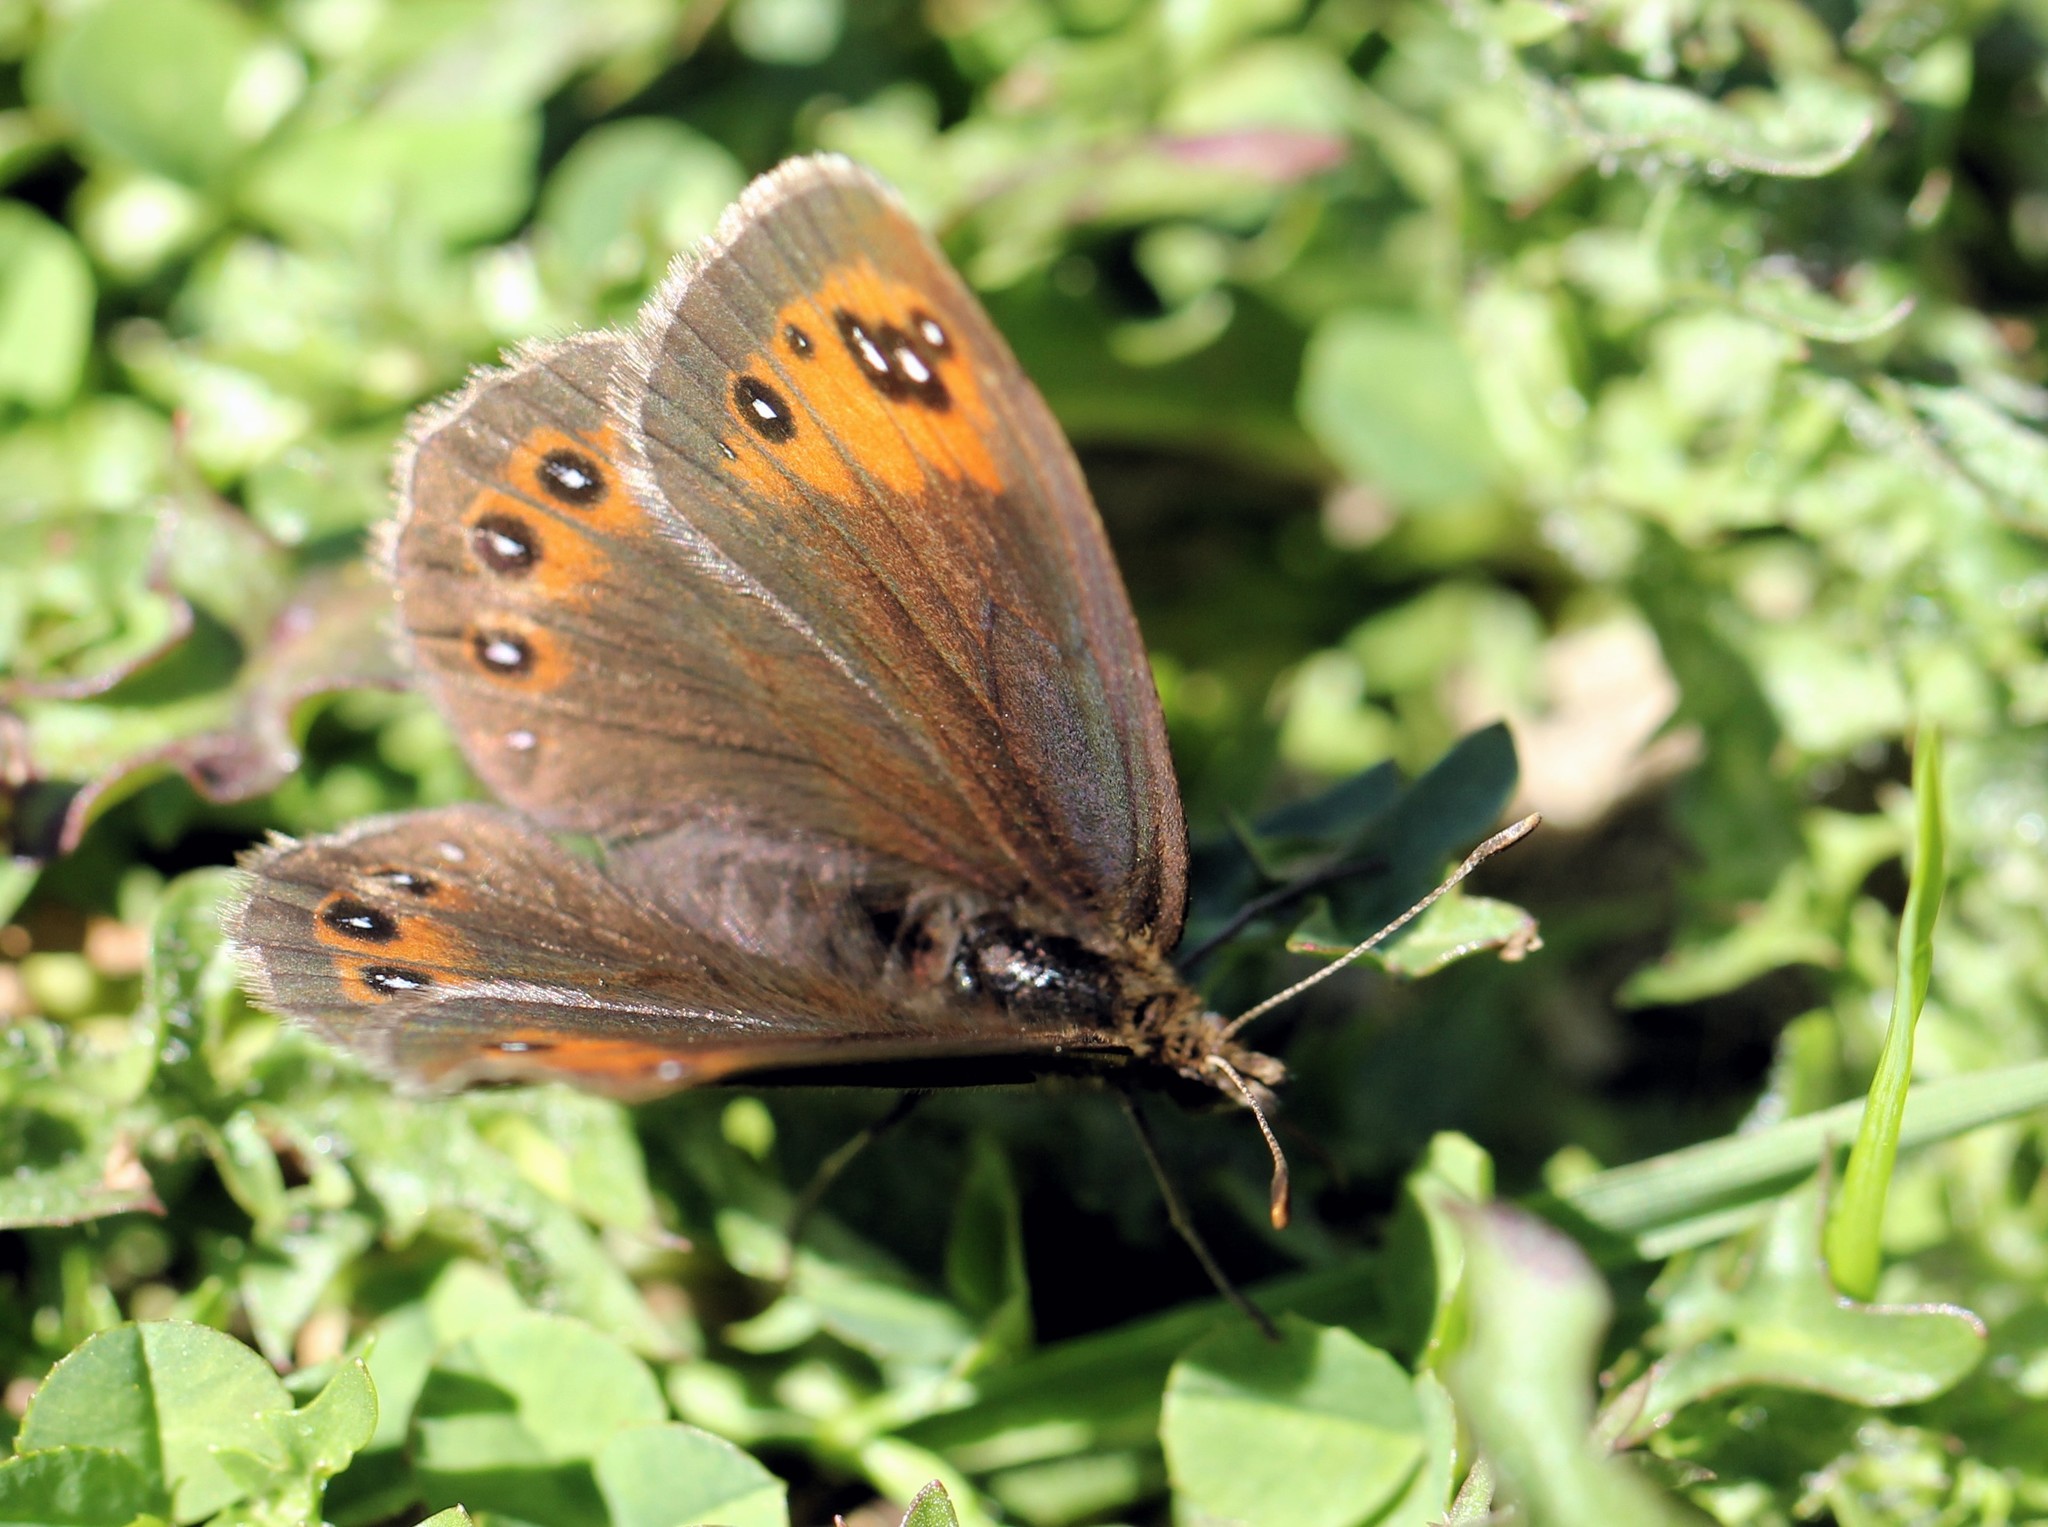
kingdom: Animalia
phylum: Arthropoda
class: Insecta
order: Lepidoptera
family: Nymphalidae
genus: Erebia
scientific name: Erebia meolans
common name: Piedmont ringlet
